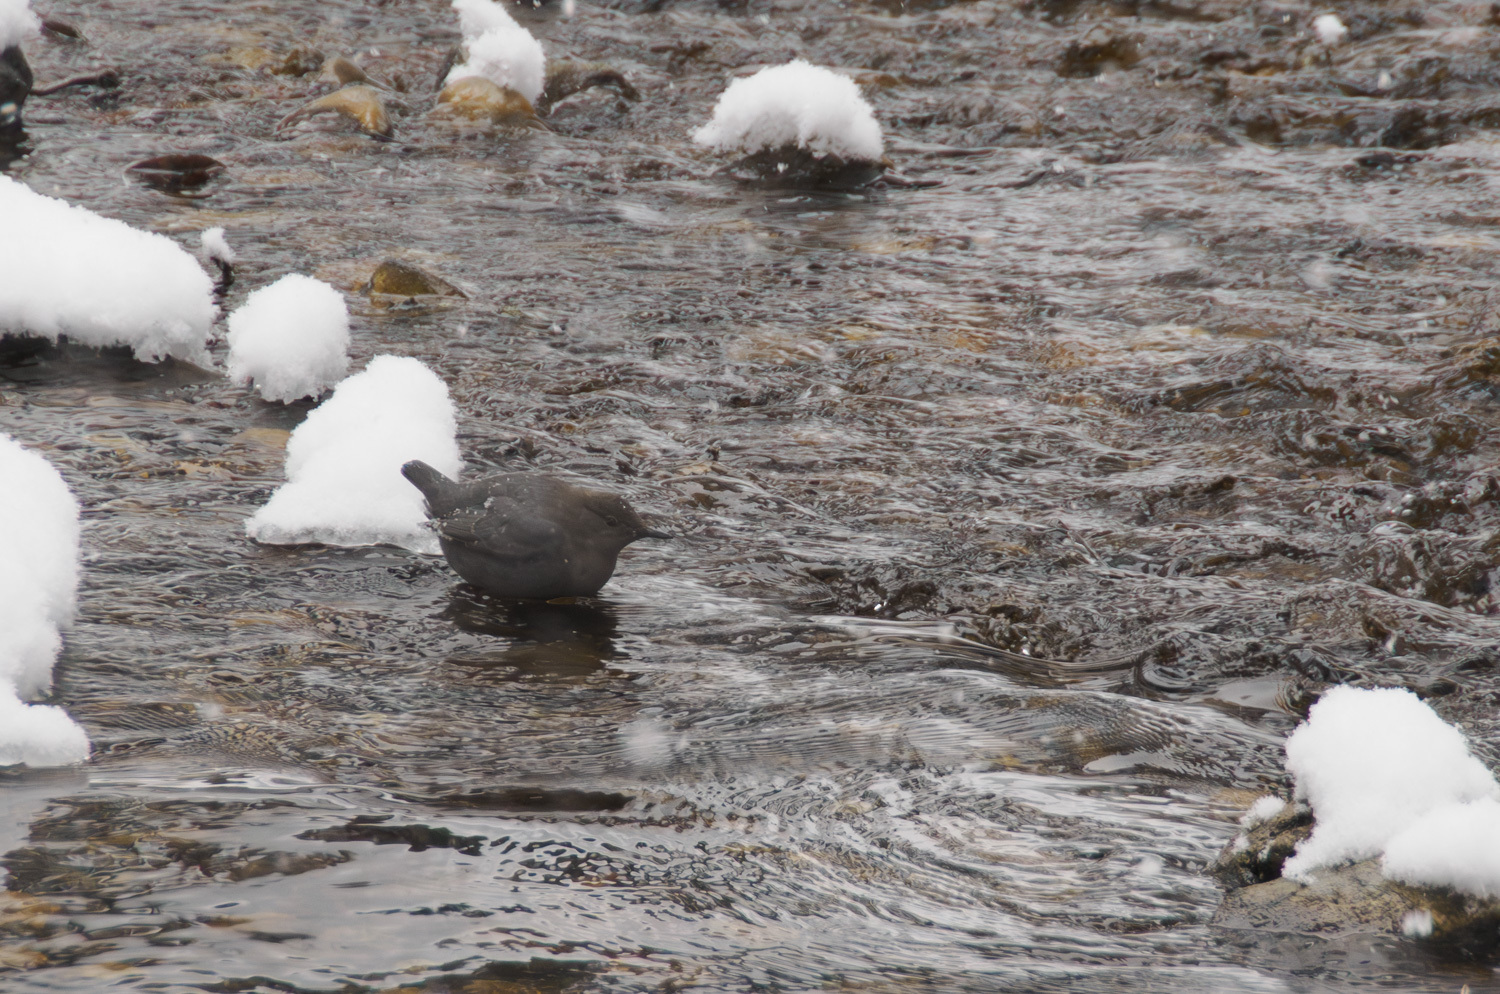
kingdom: Animalia
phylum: Chordata
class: Aves
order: Passeriformes
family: Cinclidae
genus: Cinclus
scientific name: Cinclus mexicanus
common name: American dipper
